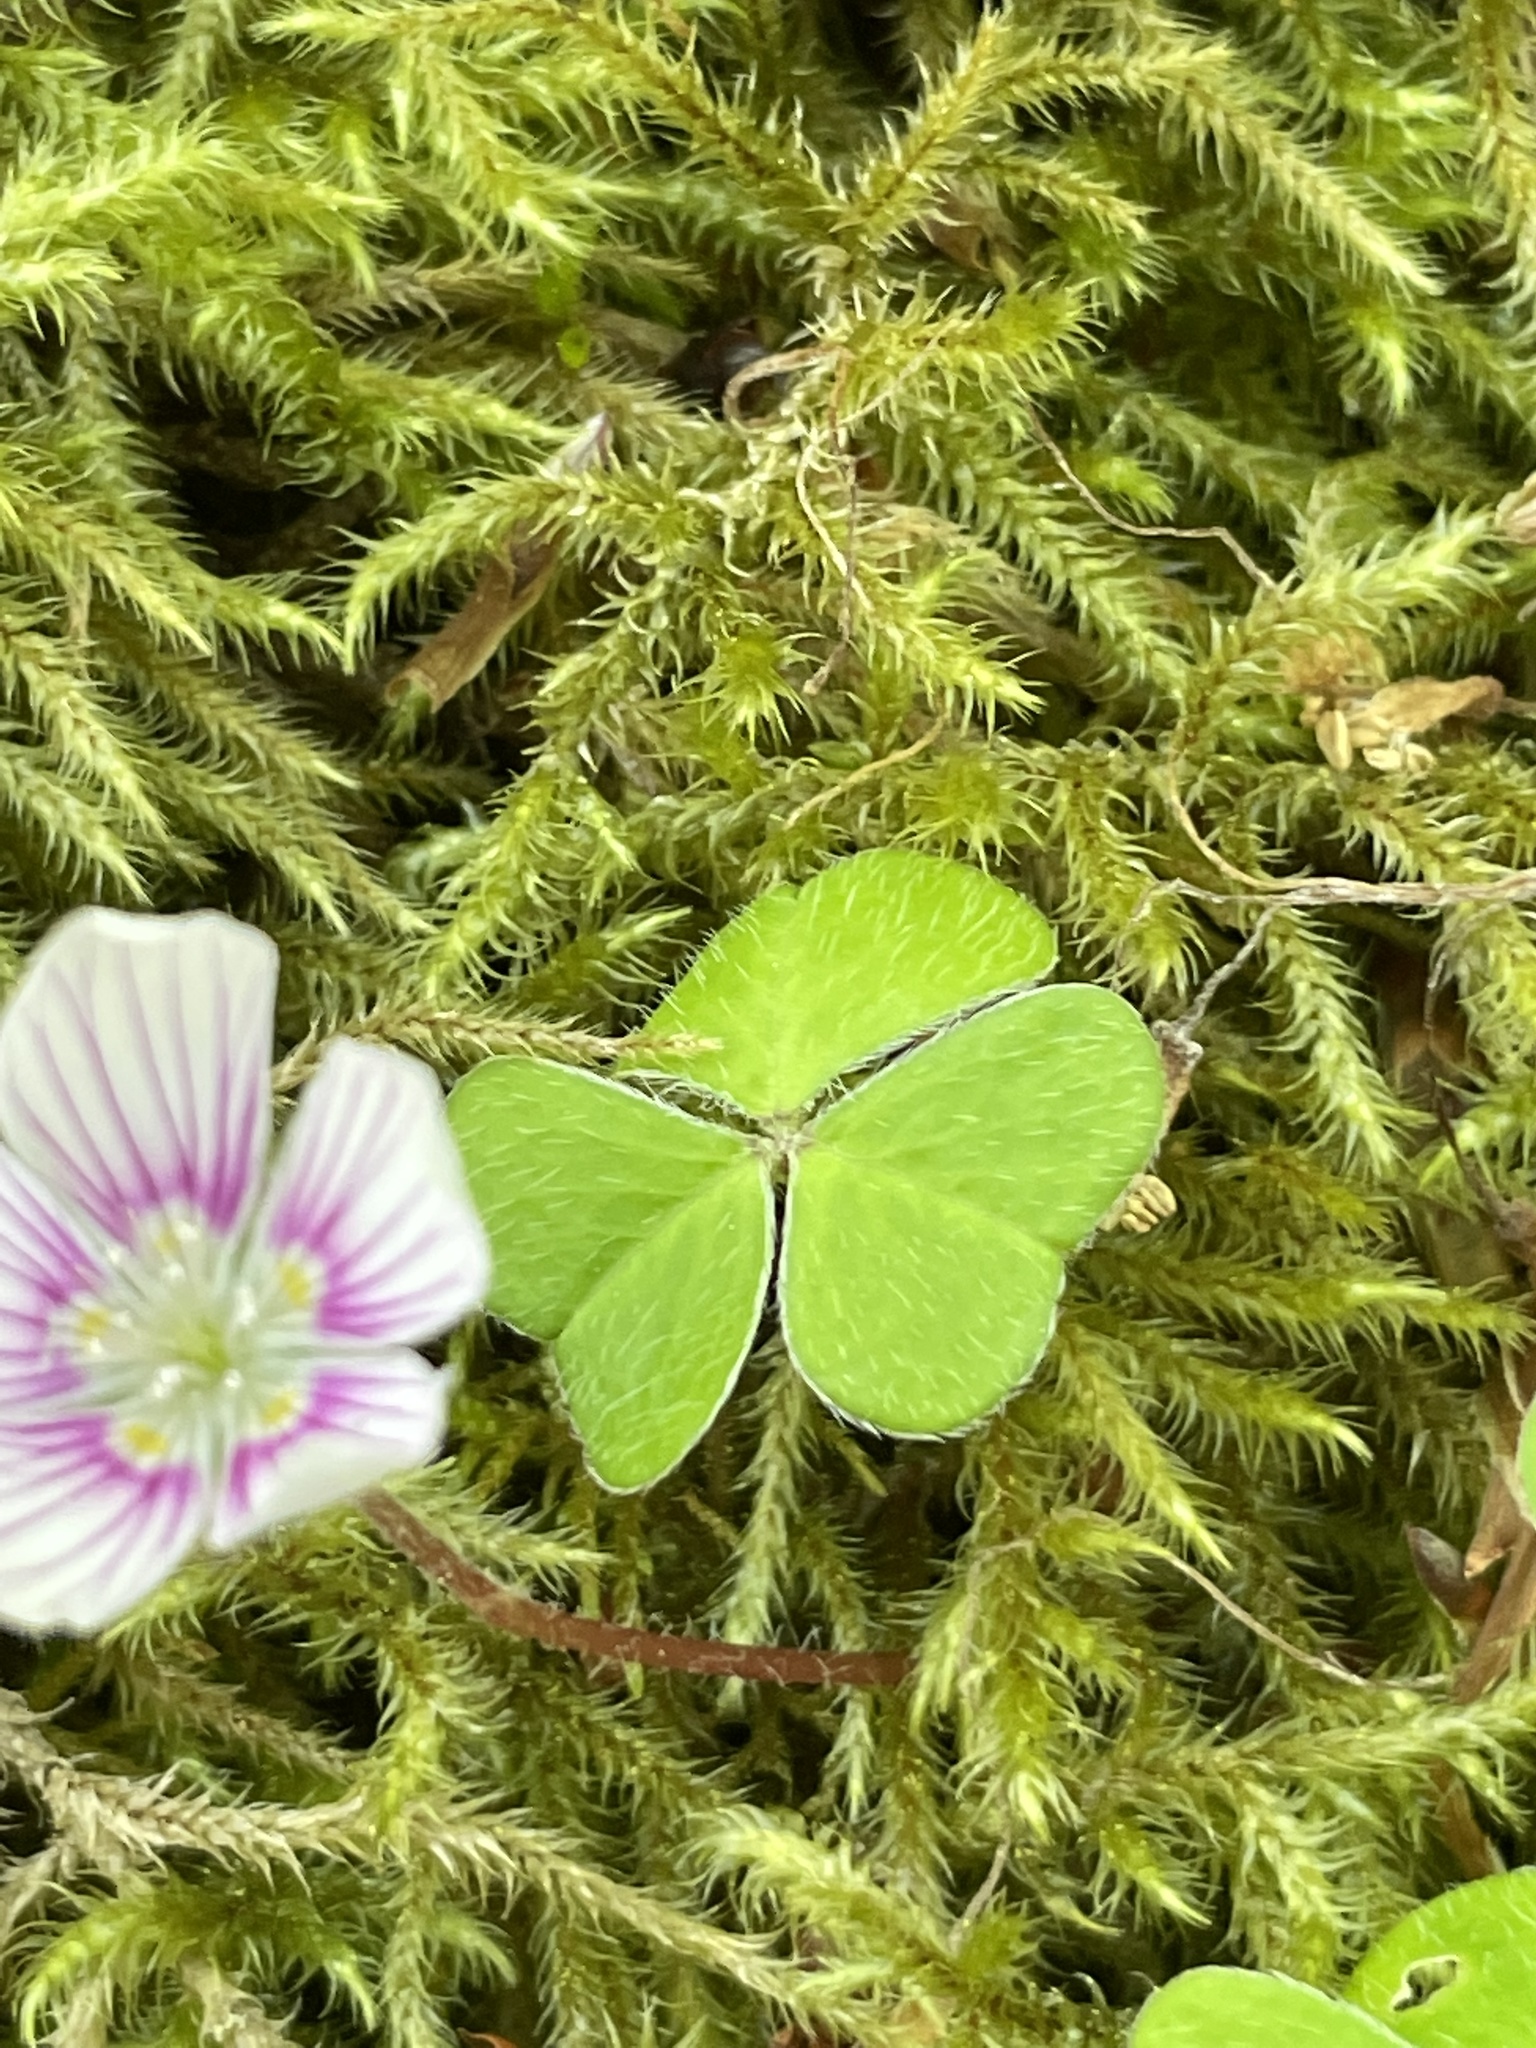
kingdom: Plantae
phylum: Tracheophyta
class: Magnoliopsida
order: Oxalidales
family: Oxalidaceae
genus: Oxalis
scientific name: Oxalis montana
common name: American wood-sorrel
